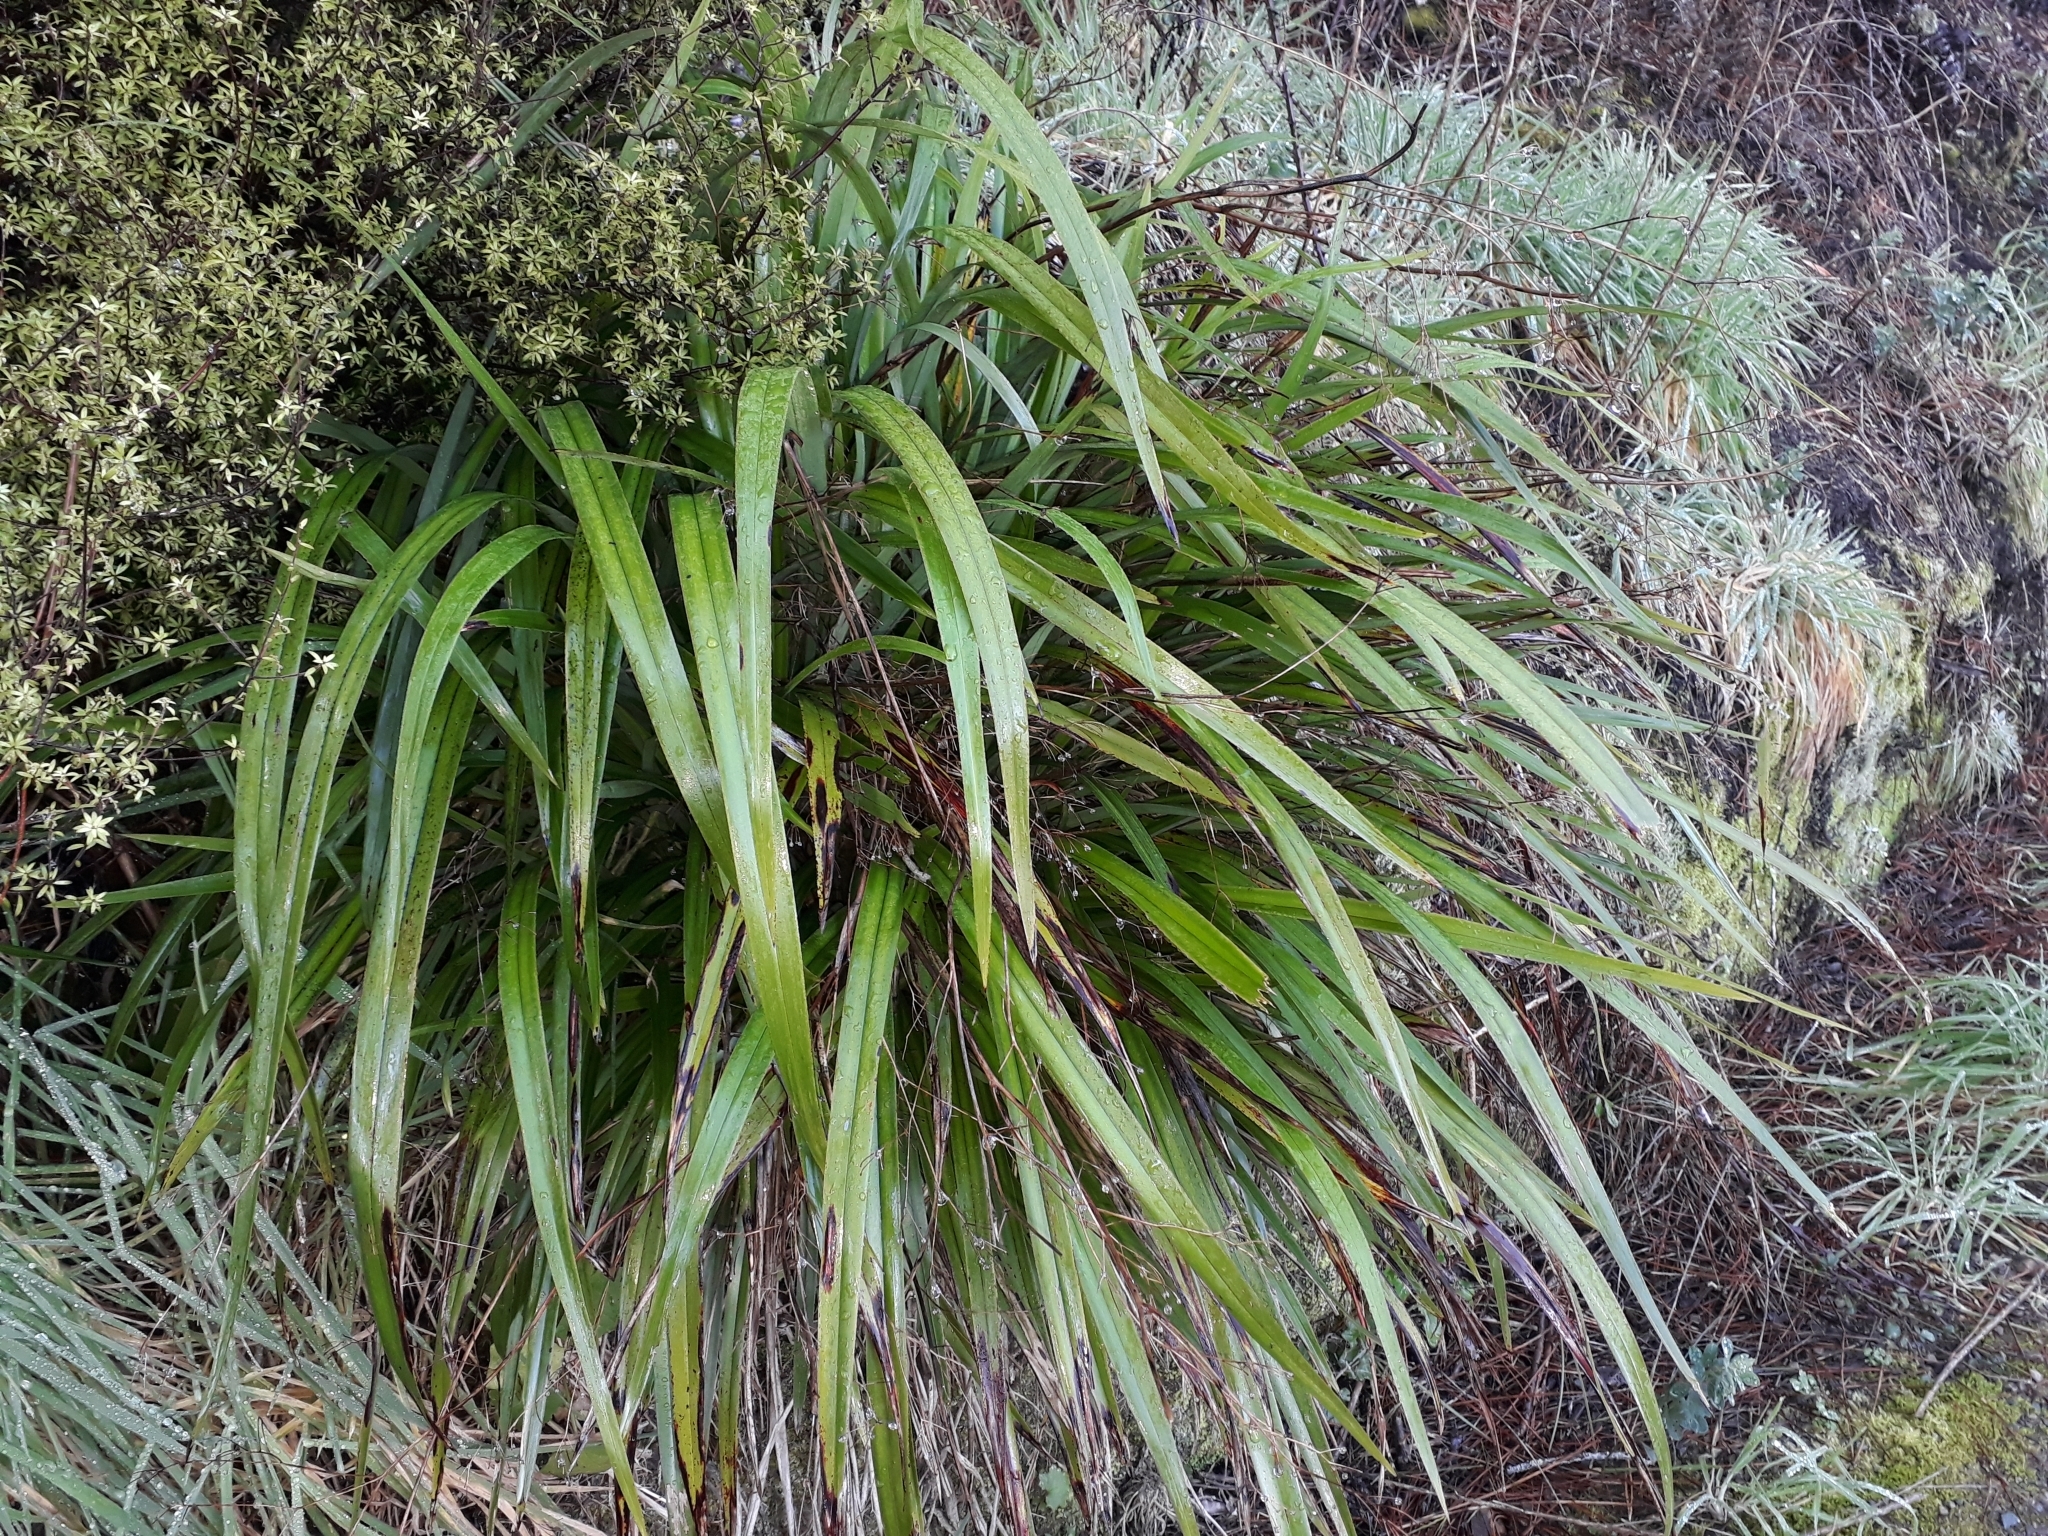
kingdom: Plantae
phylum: Tracheophyta
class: Liliopsida
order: Asparagales
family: Asphodelaceae
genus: Dianella
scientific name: Dianella nigra
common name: New zealand-blueberry
